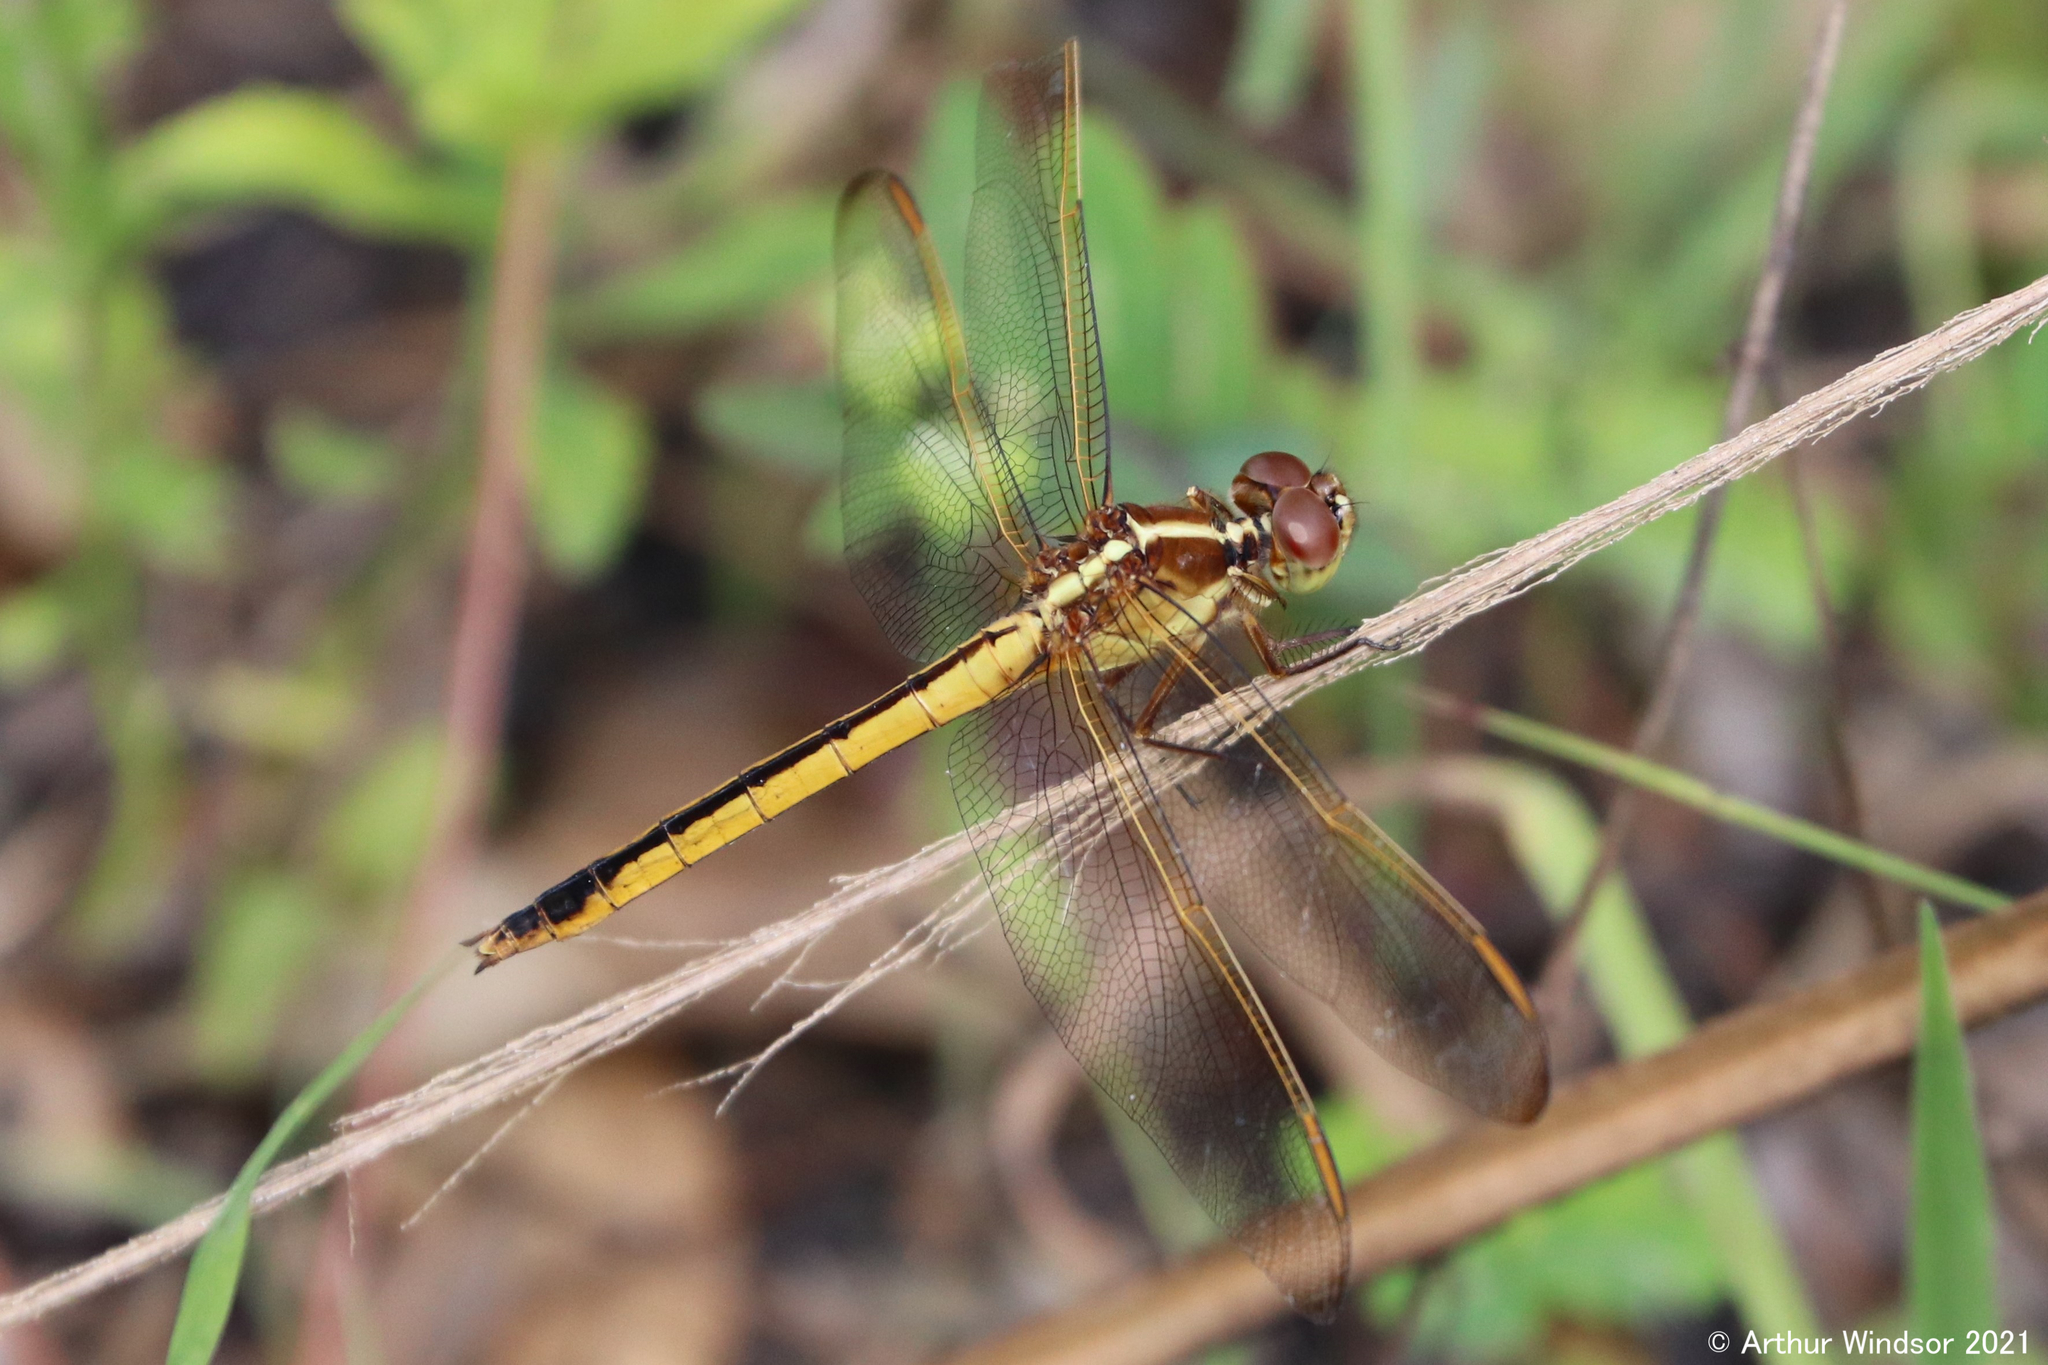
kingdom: Animalia
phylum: Arthropoda
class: Insecta
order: Odonata
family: Libellulidae
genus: Libellula
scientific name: Libellula needhami
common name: Needham's skimmer
